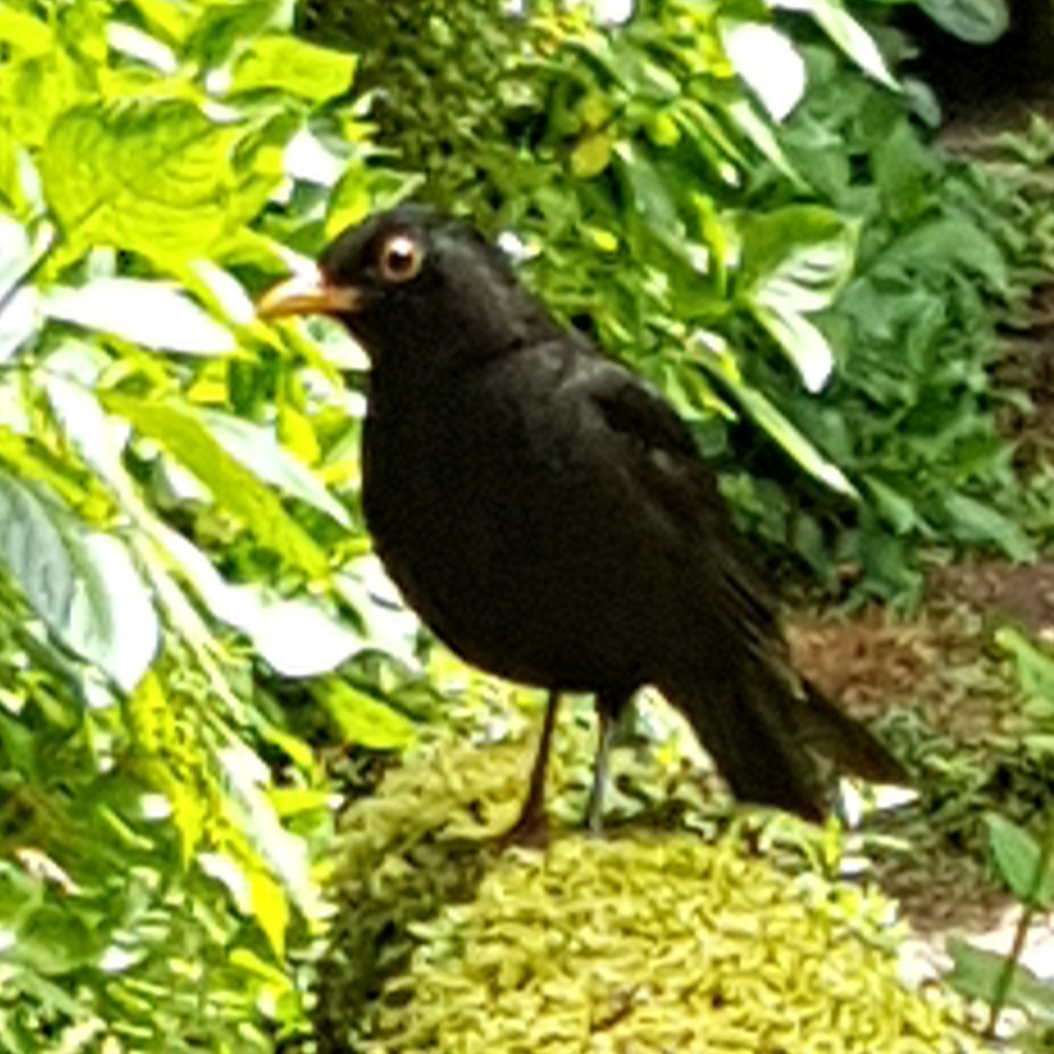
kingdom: Animalia
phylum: Chordata
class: Aves
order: Passeriformes
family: Turdidae
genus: Turdus
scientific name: Turdus merula
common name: Common blackbird
